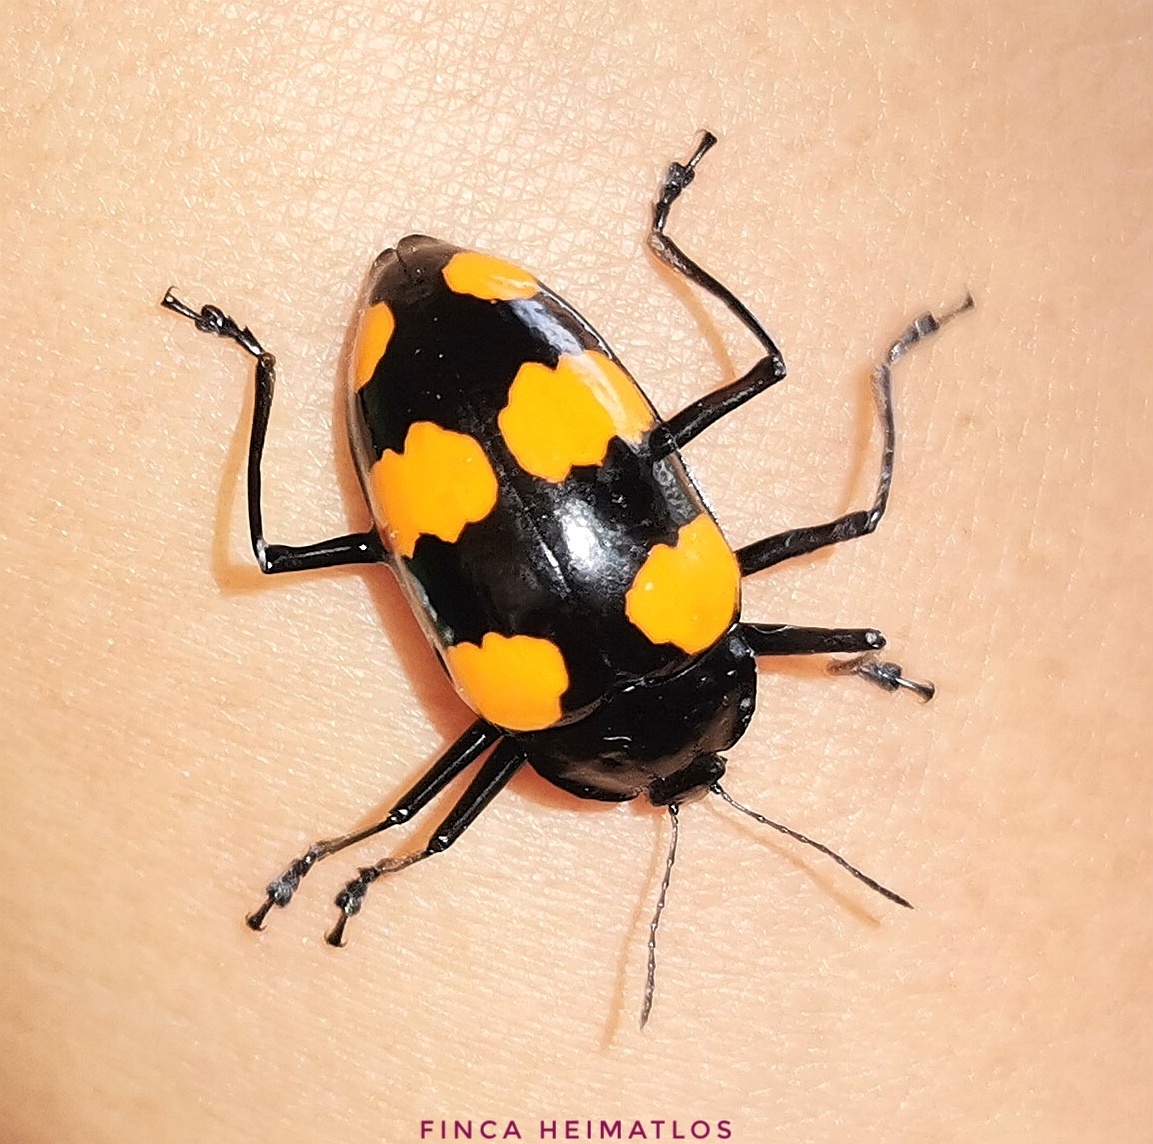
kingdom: Animalia
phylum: Arthropoda
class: Insecta
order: Coleoptera
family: Erotylidae
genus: Scaphidomorphus
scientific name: Scaphidomorphus bosci
